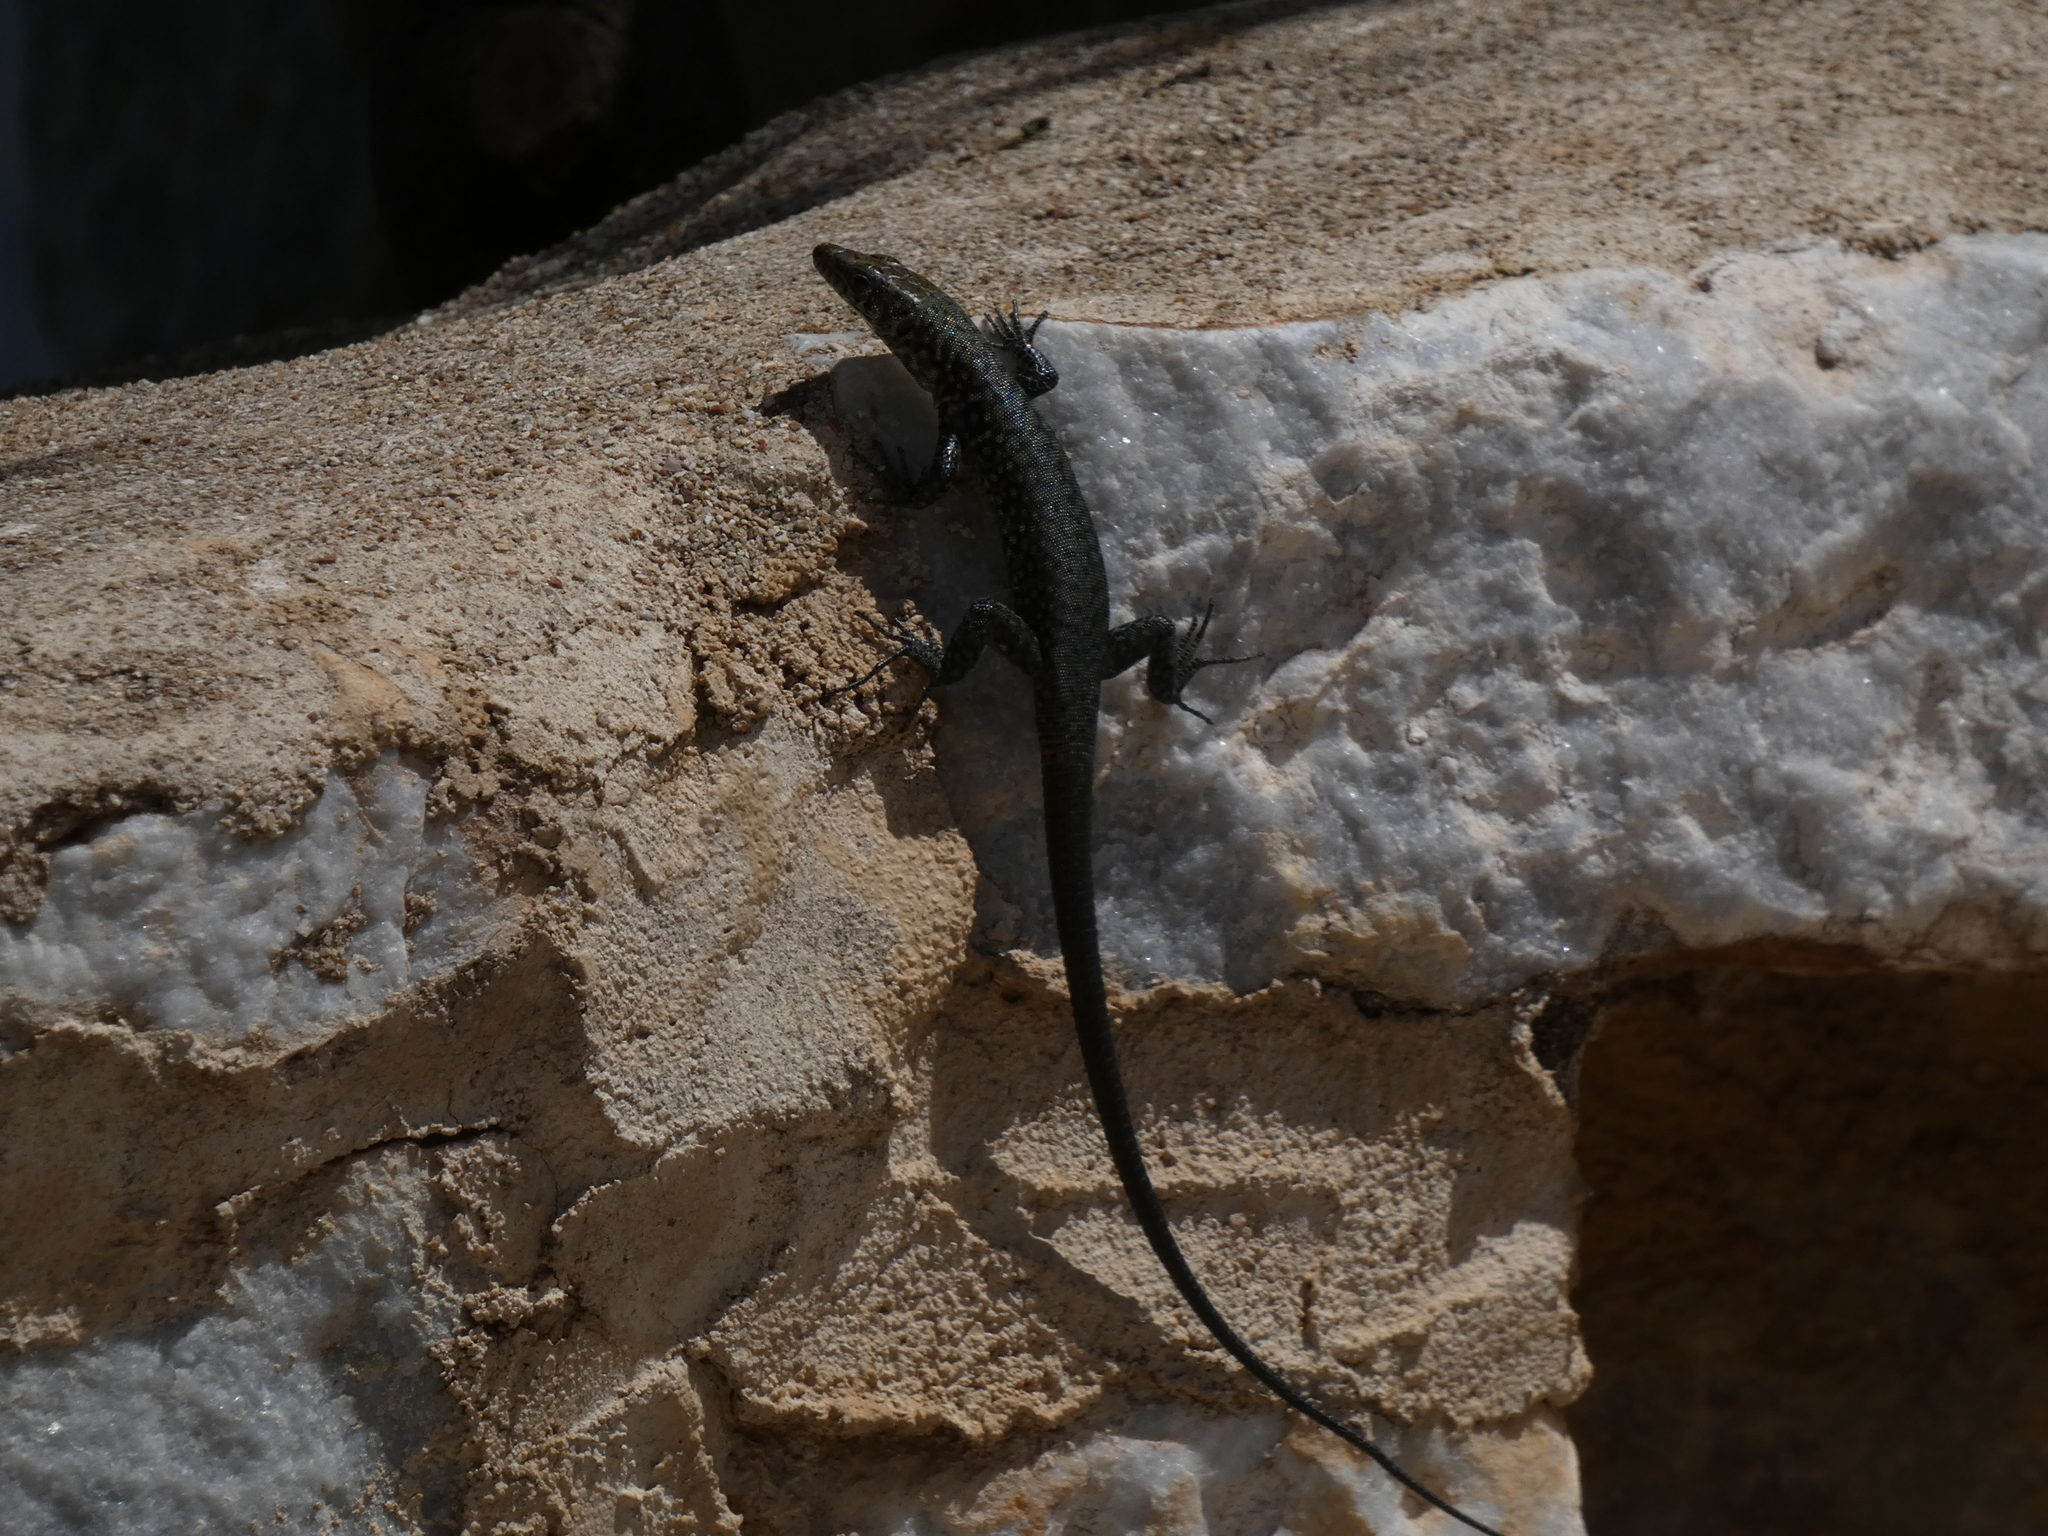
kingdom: Animalia
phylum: Chordata
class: Squamata
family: Lacertidae
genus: Hellenolacerta
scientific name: Hellenolacerta graeca
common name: Greek rock lizard
